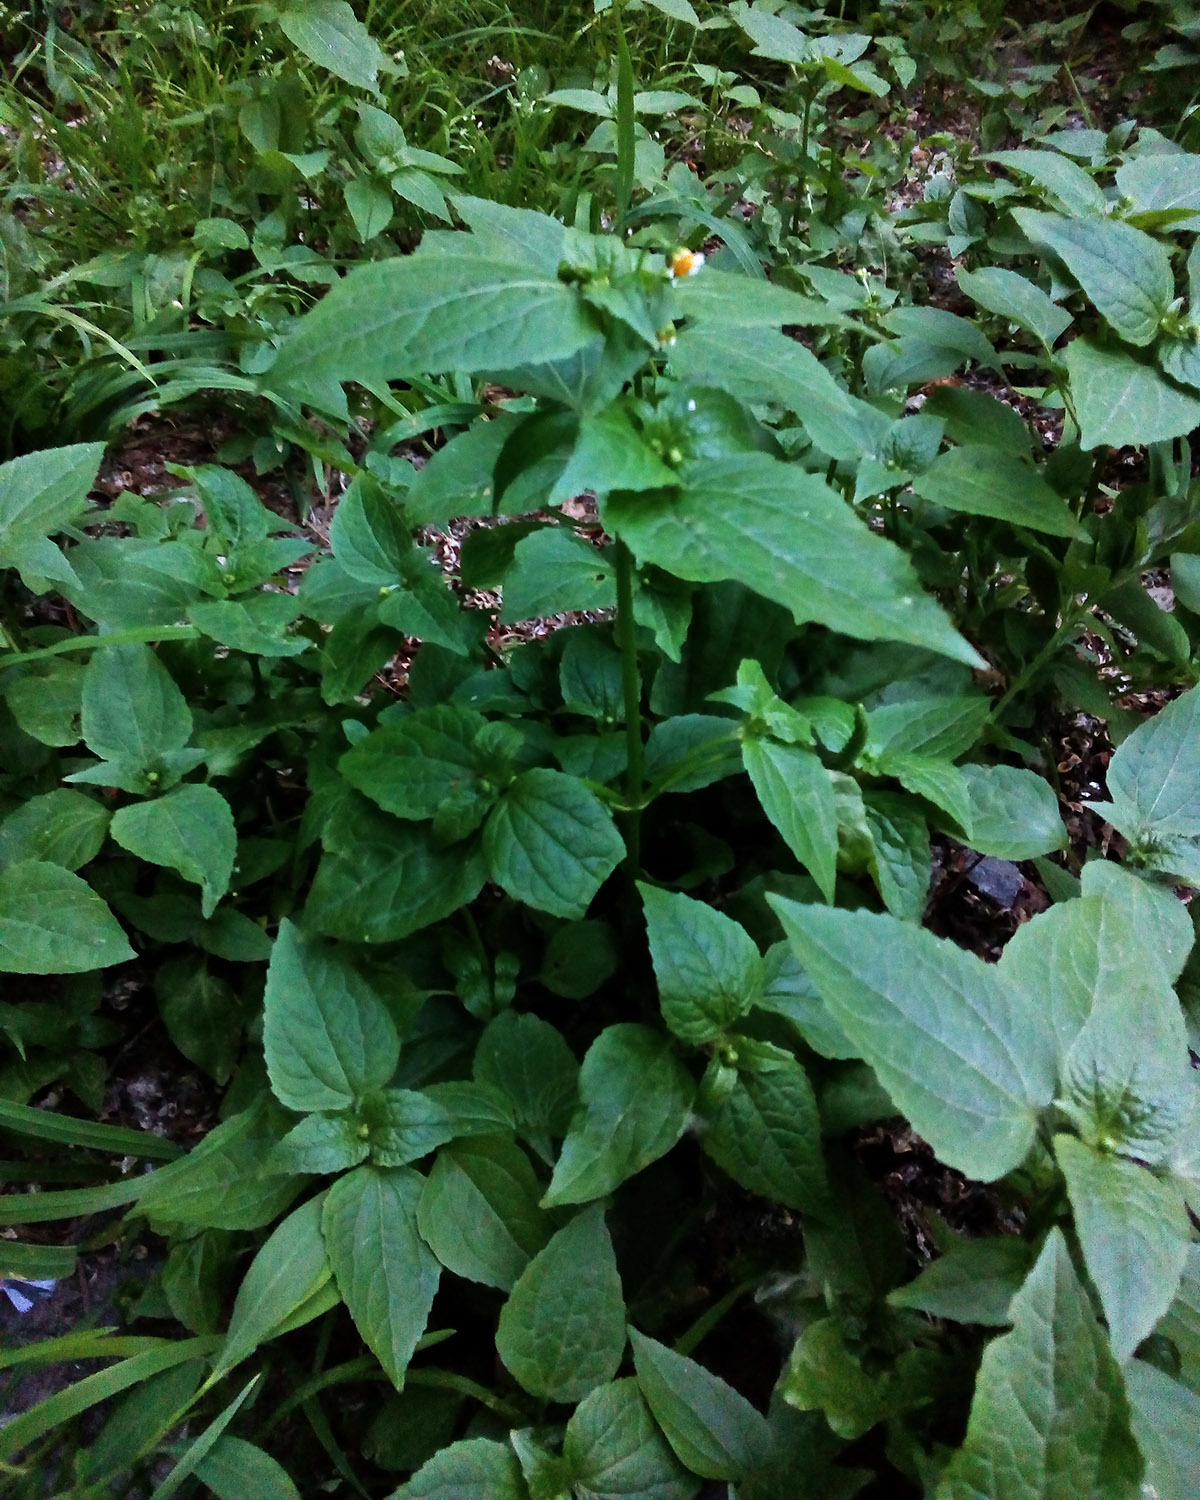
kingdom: Plantae
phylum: Tracheophyta
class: Magnoliopsida
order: Asterales
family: Asteraceae
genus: Galinsoga
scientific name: Galinsoga parviflora
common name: Gallant soldier
